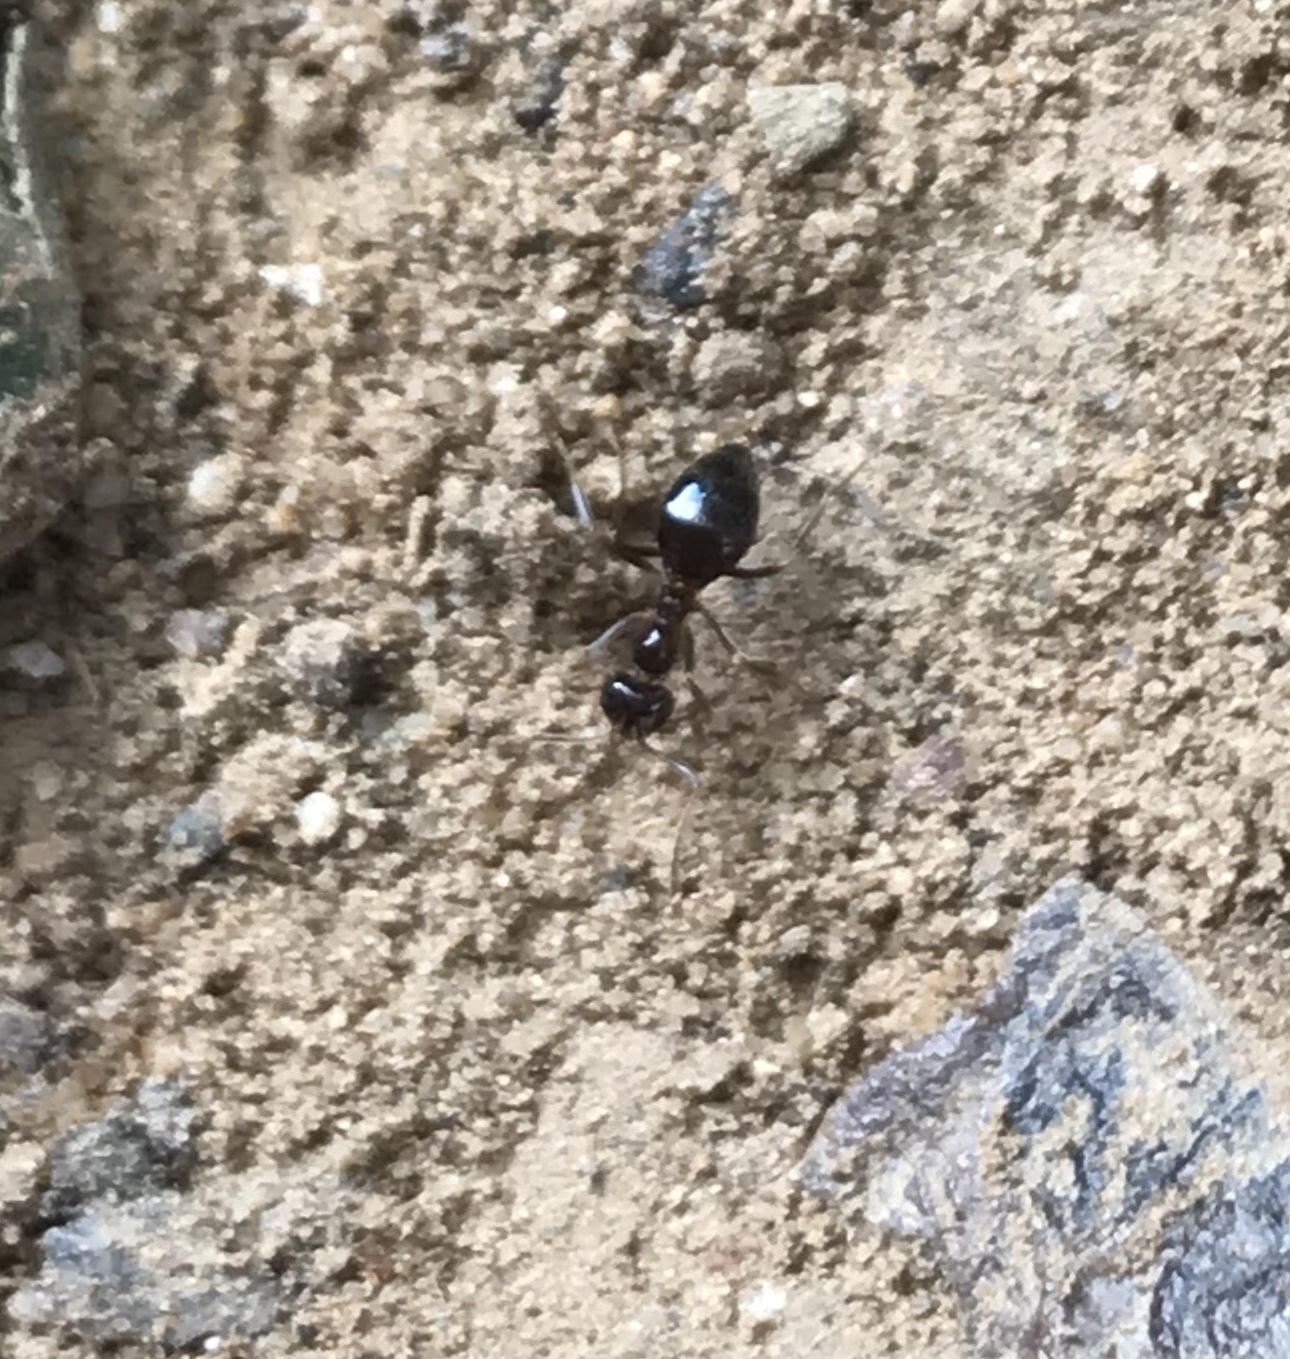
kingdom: Animalia
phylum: Arthropoda
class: Insecta
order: Hymenoptera
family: Formicidae
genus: Prenolepis
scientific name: Prenolepis imparis
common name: Small honey ant
